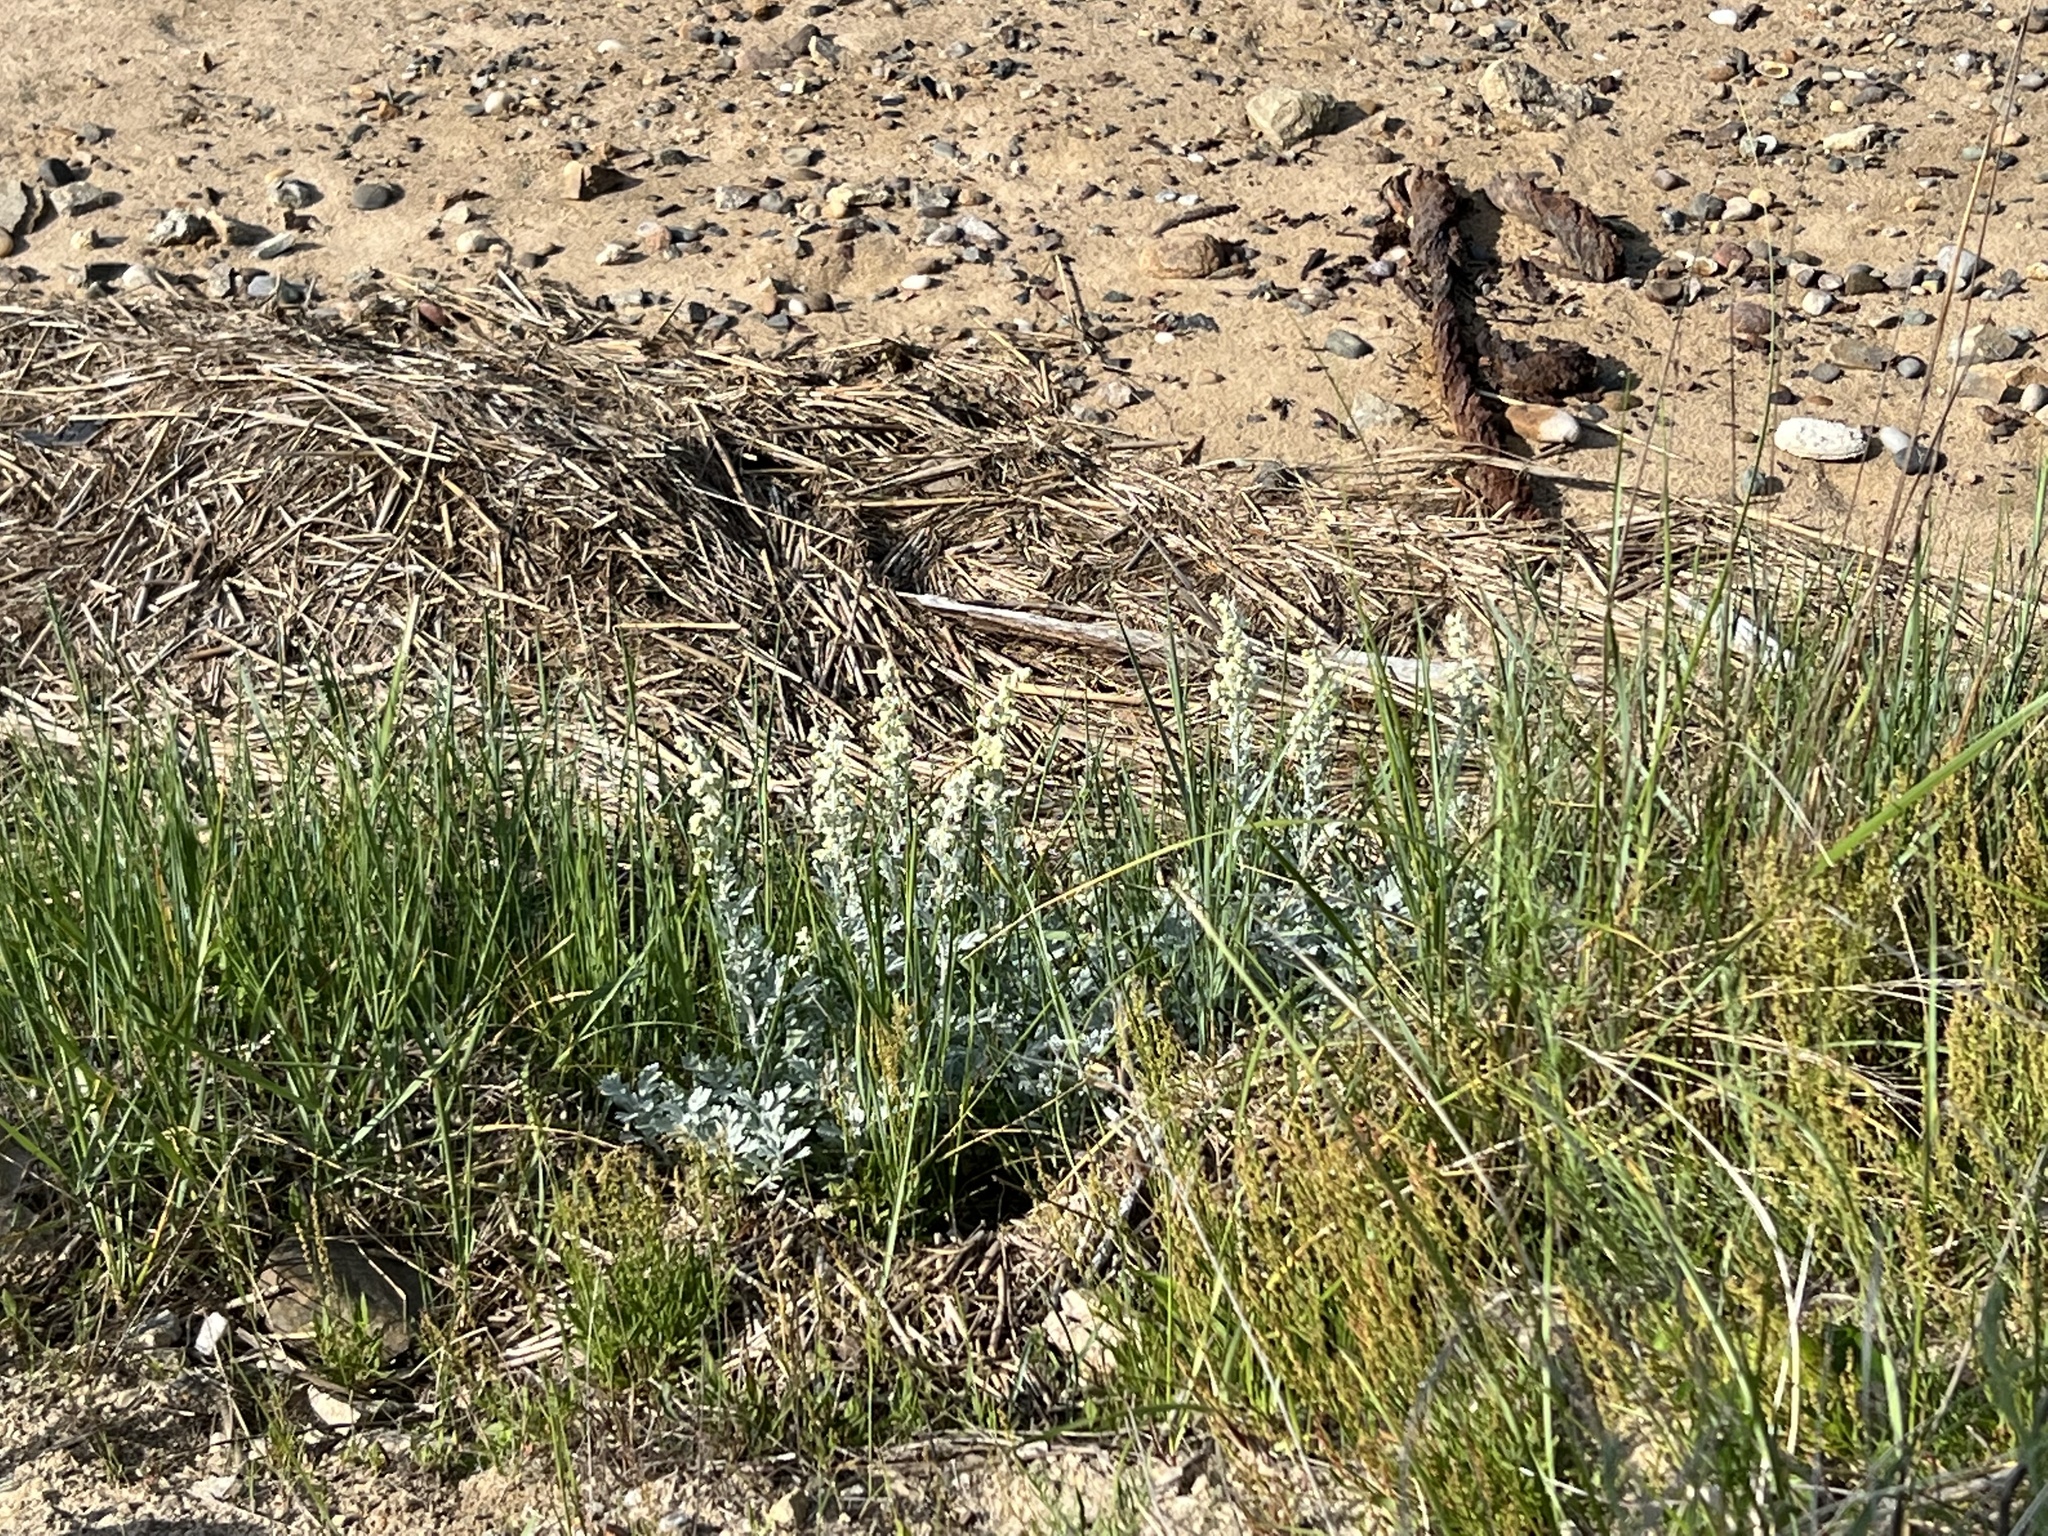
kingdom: Plantae
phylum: Tracheophyta
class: Magnoliopsida
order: Asterales
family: Asteraceae
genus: Artemisia
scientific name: Artemisia stelleriana
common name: Beach wormwood
